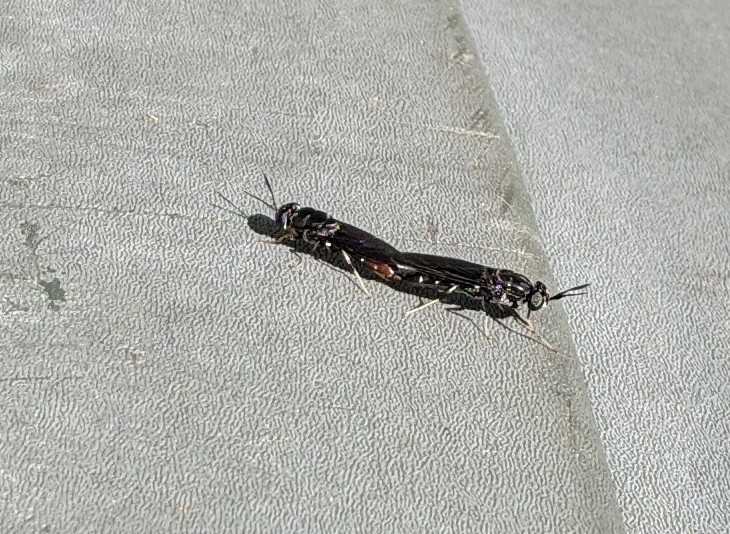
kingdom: Animalia
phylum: Arthropoda
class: Insecta
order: Diptera
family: Stratiomyidae
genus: Hermetia
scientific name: Hermetia illucens
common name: Black soldier fly
